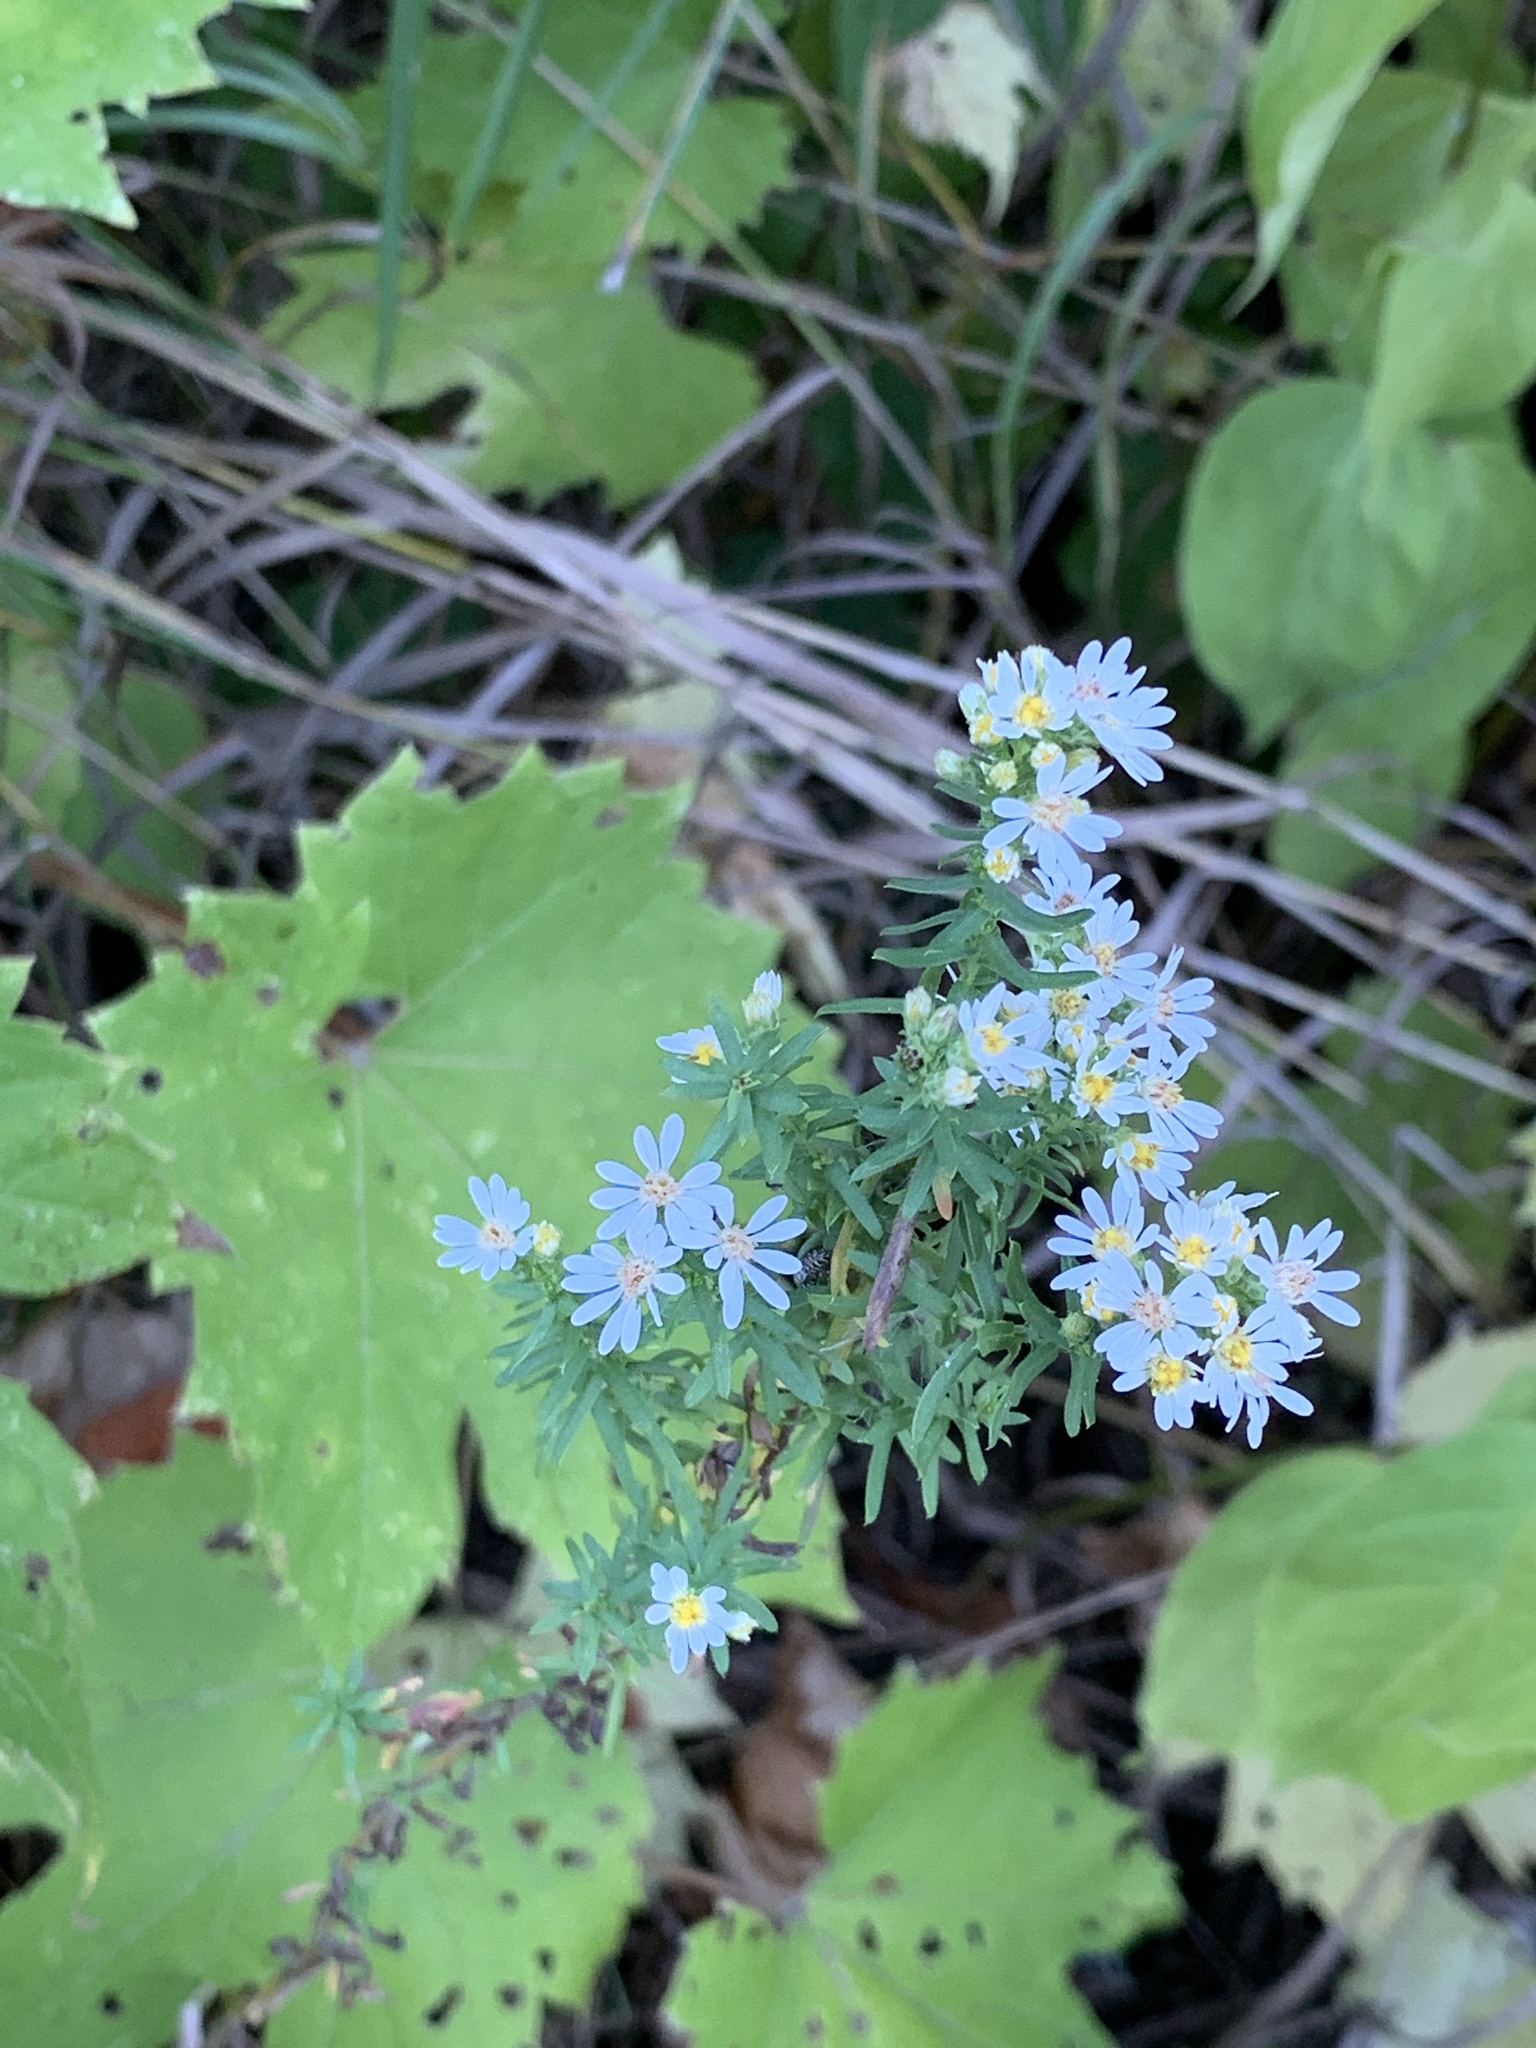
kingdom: Plantae
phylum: Tracheophyta
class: Magnoliopsida
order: Asterales
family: Asteraceae
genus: Symphyotrichum
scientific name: Symphyotrichum ericoides
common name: Heath aster
